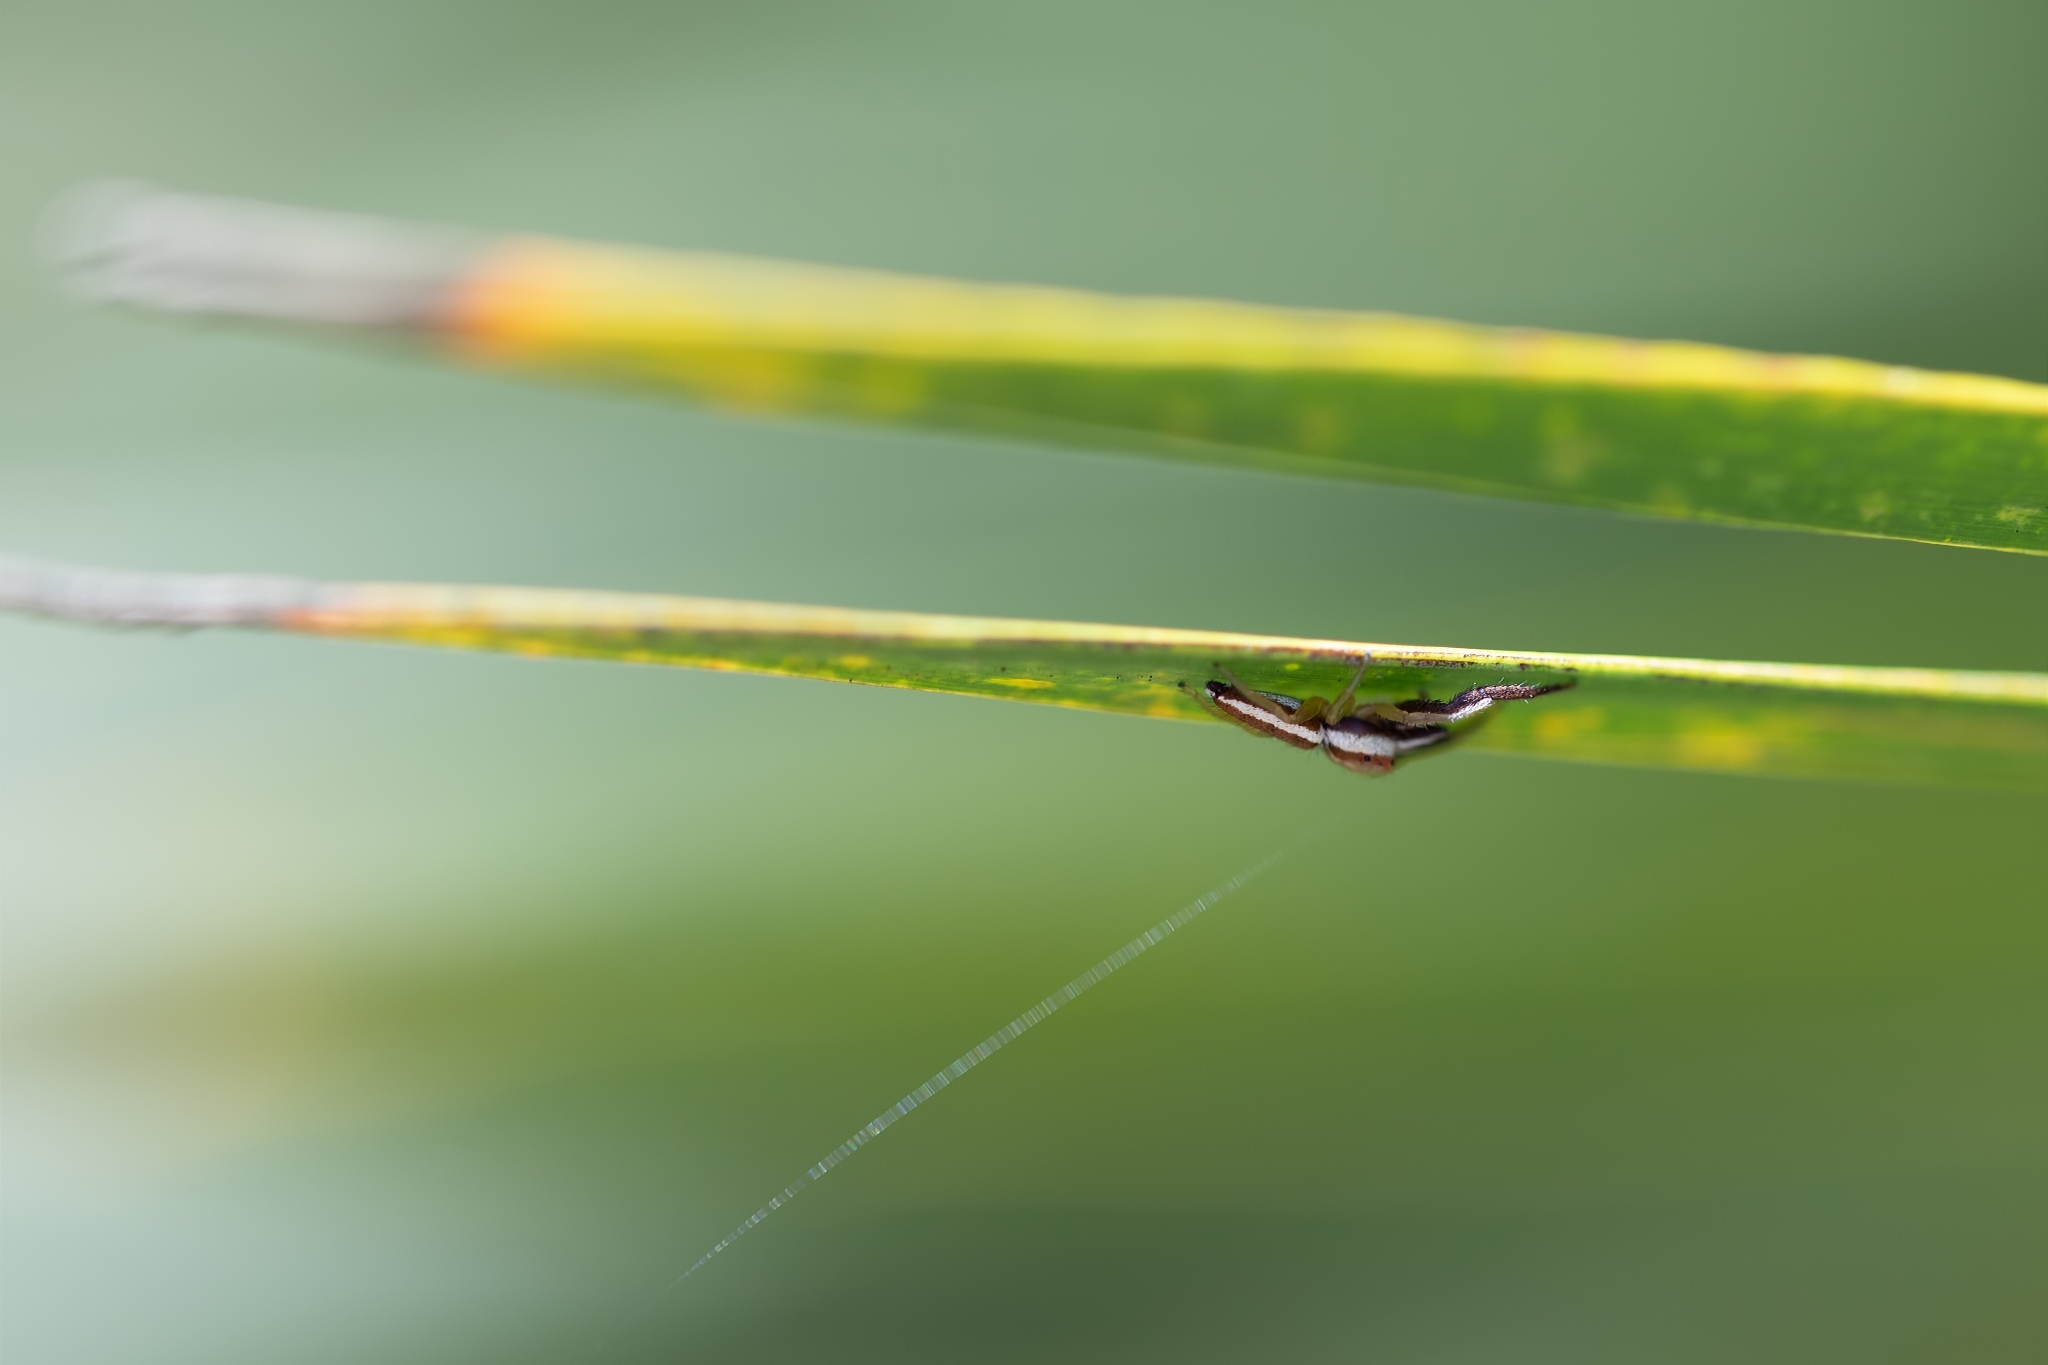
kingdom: Animalia
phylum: Arthropoda
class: Arachnida
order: Araneae
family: Salticidae
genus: Hentzia
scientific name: Hentzia palmarum
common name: Common hentz jumping spider
